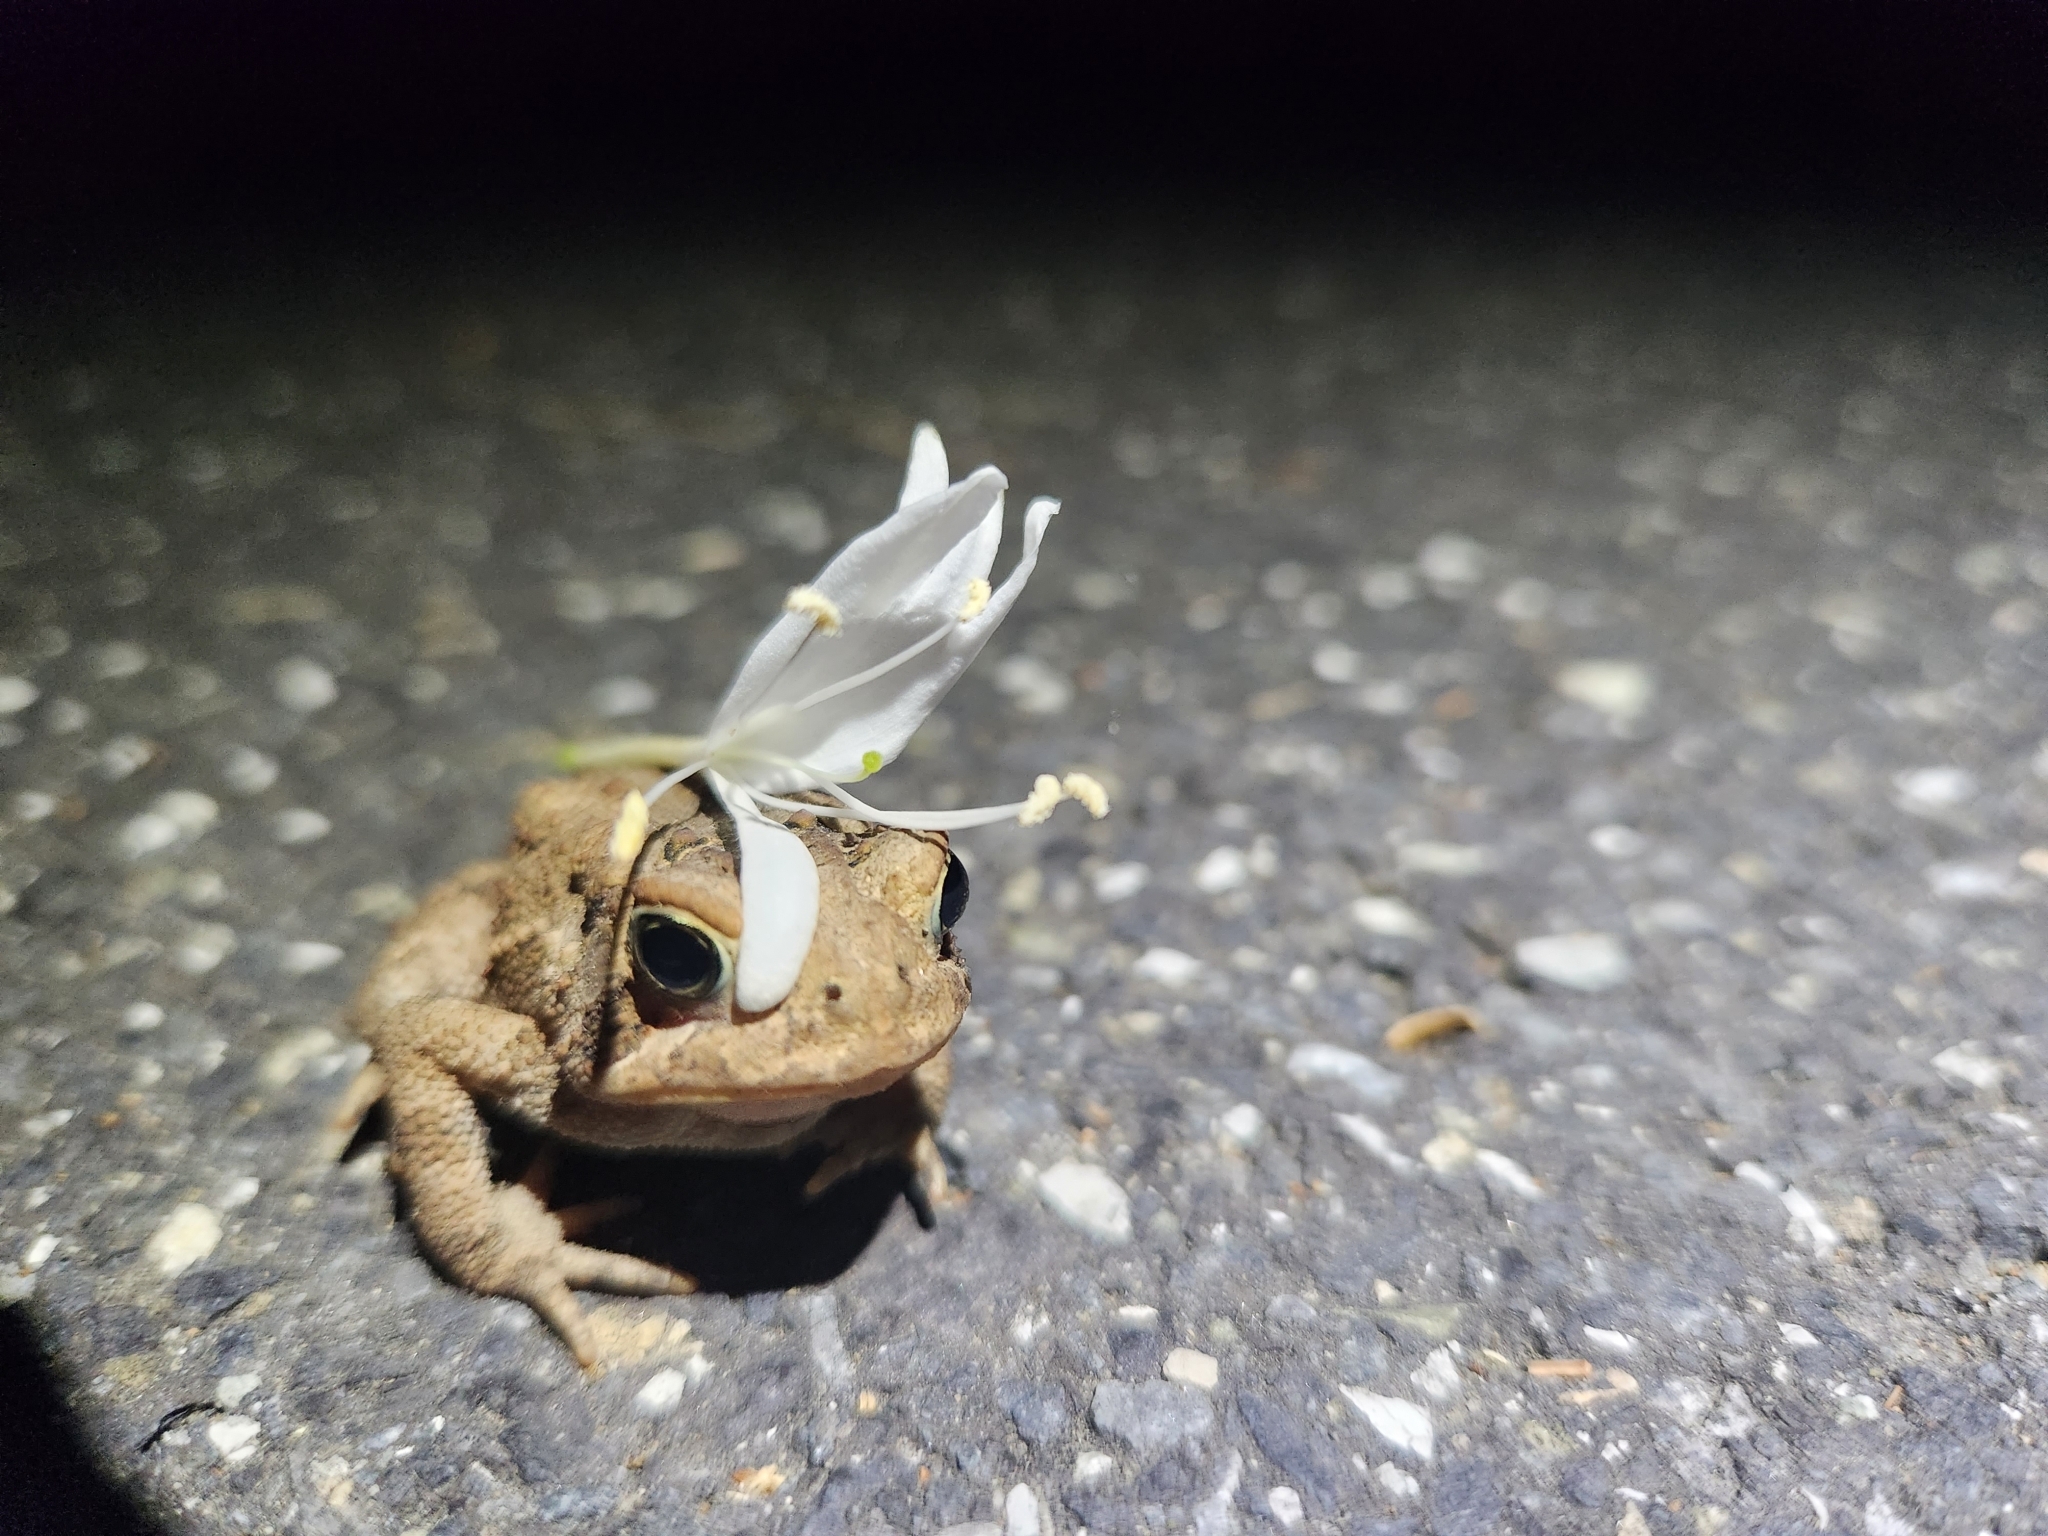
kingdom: Animalia
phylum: Chordata
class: Amphibia
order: Anura
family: Bufonidae
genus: Anaxyrus
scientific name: Anaxyrus americanus
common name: American toad
